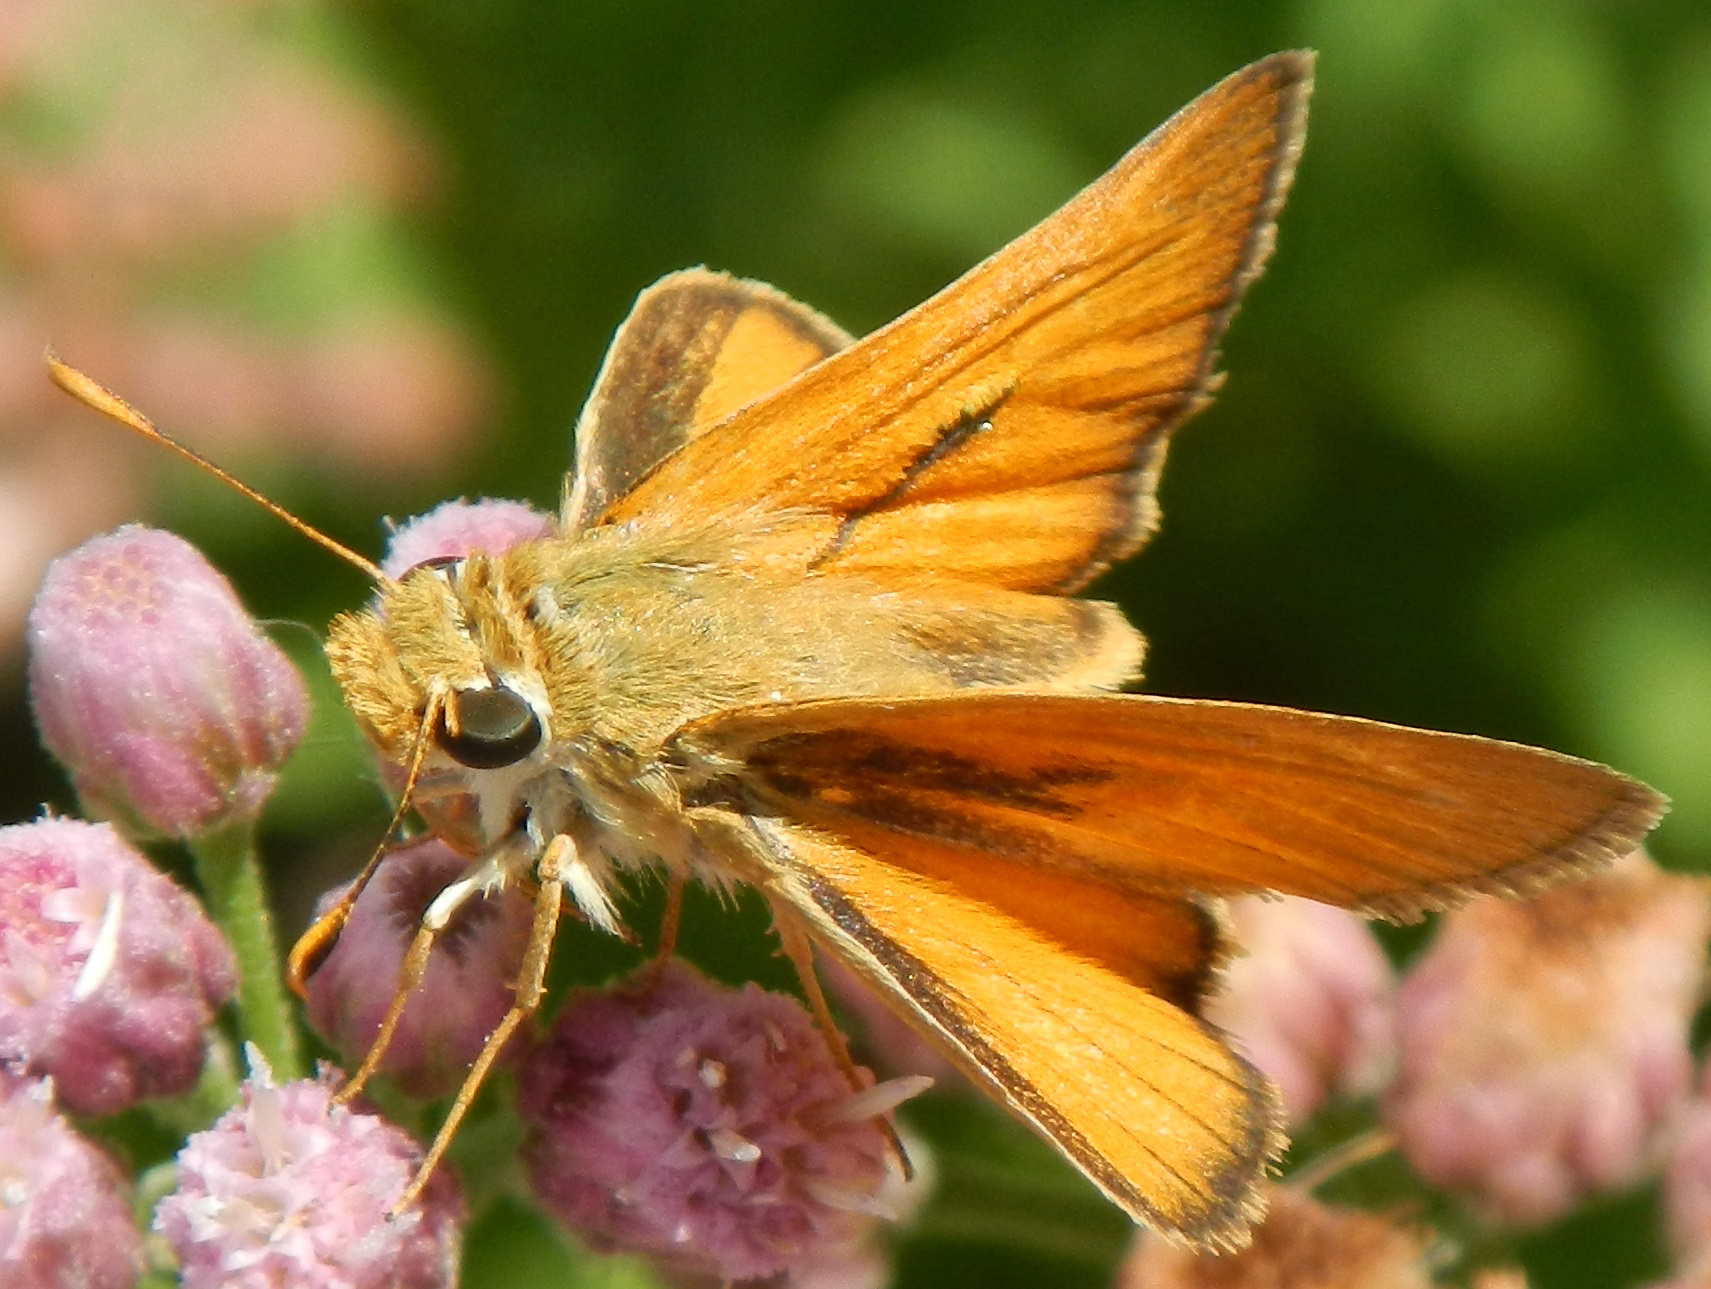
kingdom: Animalia
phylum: Arthropoda
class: Insecta
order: Lepidoptera
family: Hesperiidae
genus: Ochlodes
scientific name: Ochlodes sylvanoides
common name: Woodland skipper
